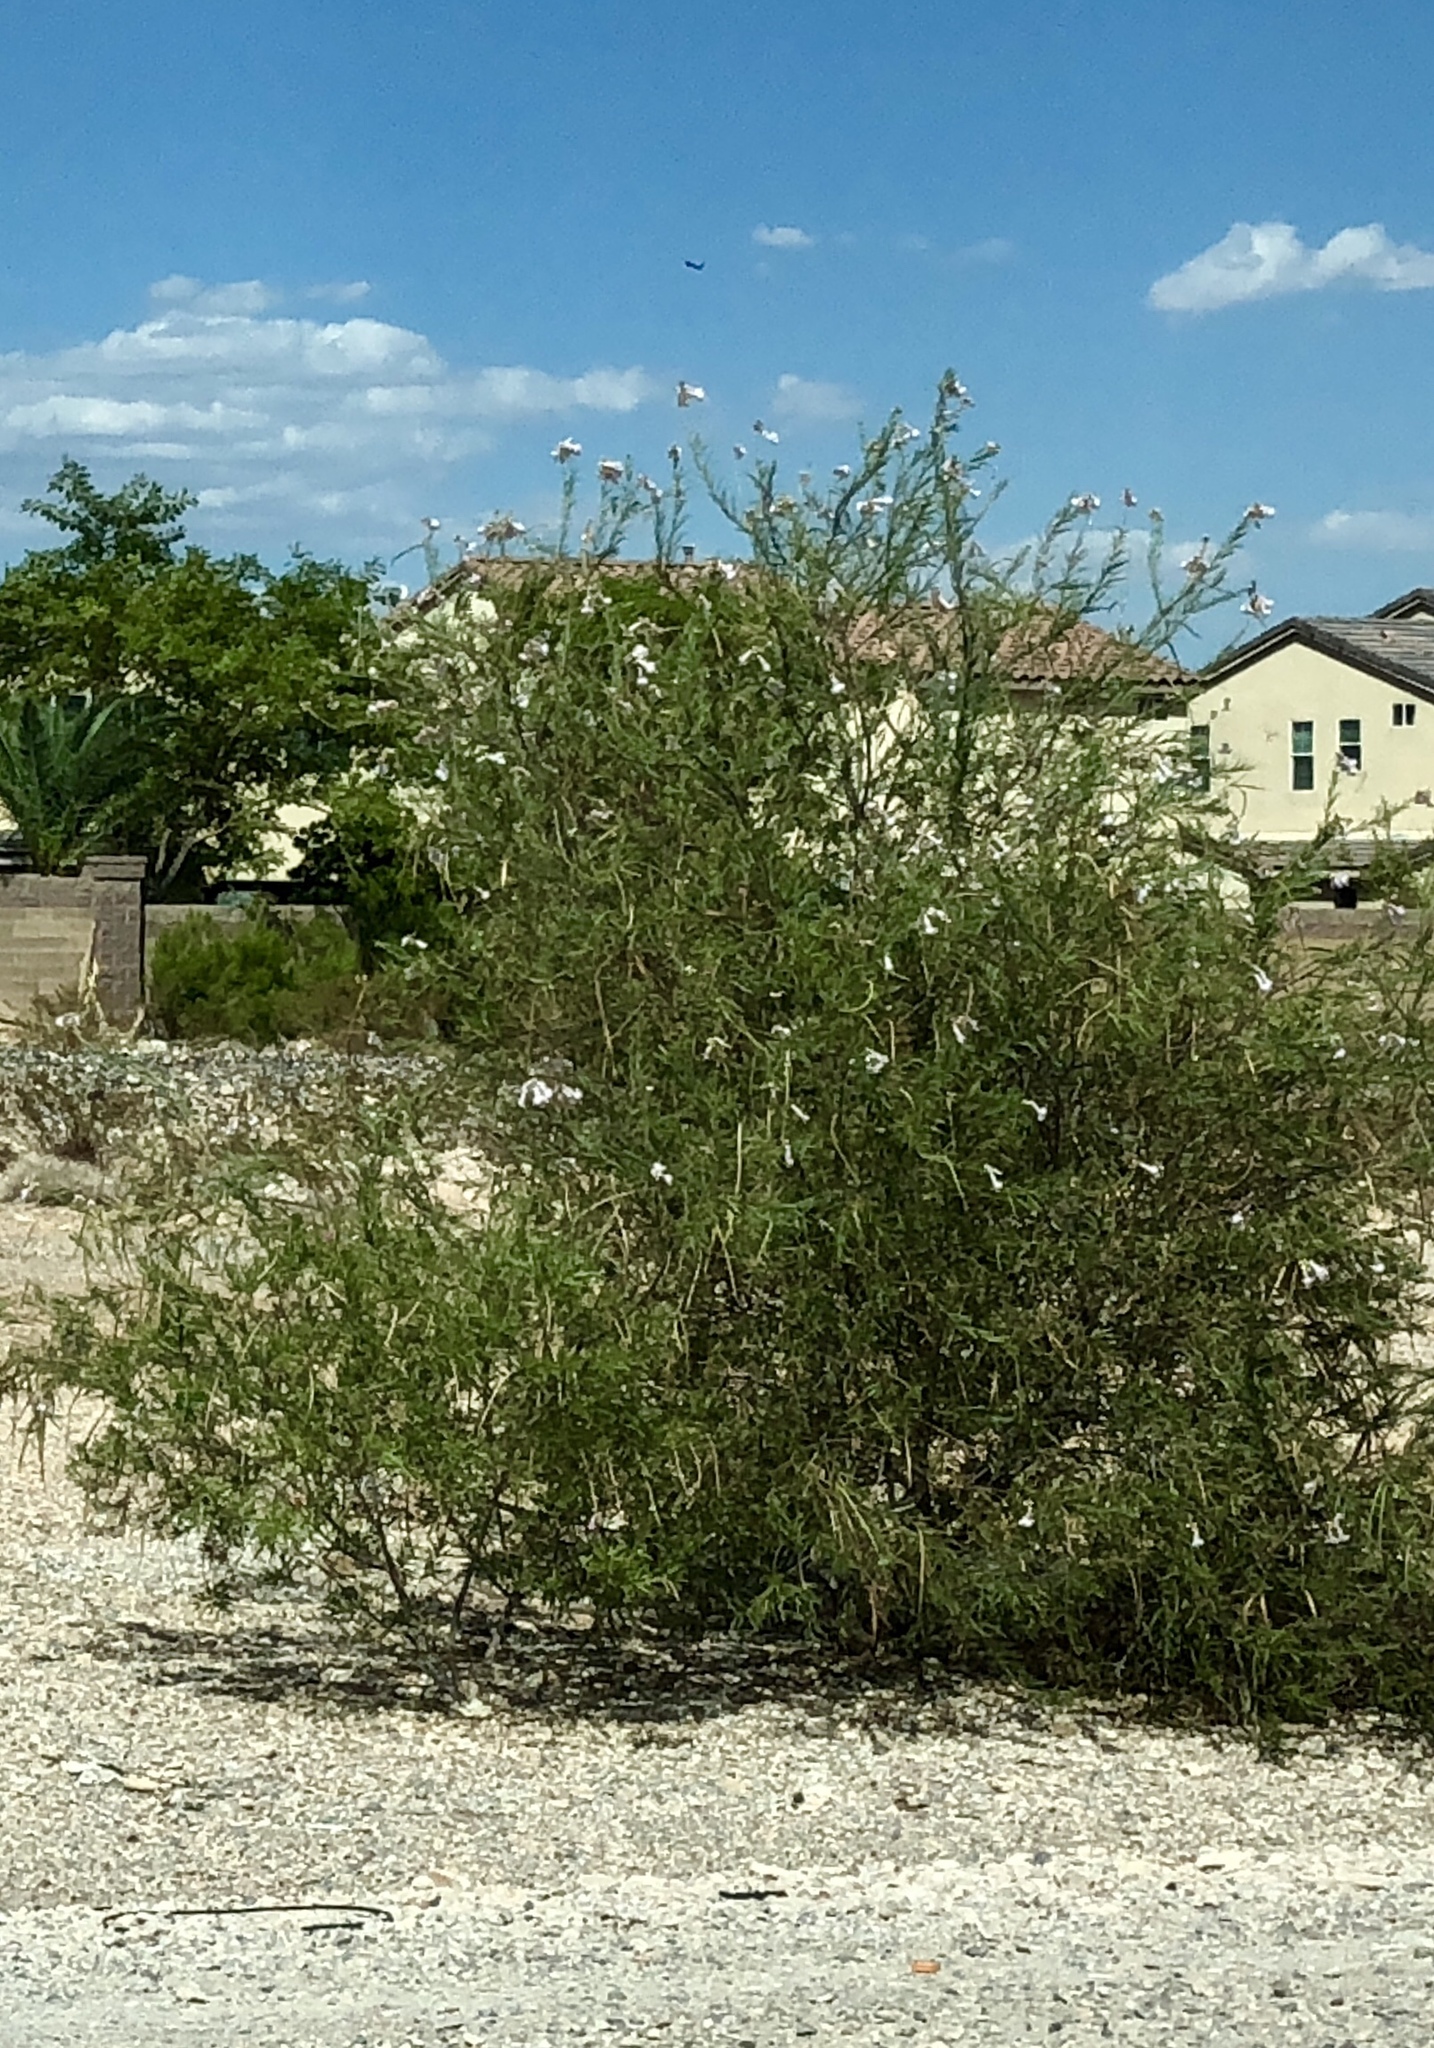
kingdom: Plantae
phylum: Tracheophyta
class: Magnoliopsida
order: Lamiales
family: Bignoniaceae
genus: Chilopsis
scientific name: Chilopsis linearis
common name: Desert-willow
